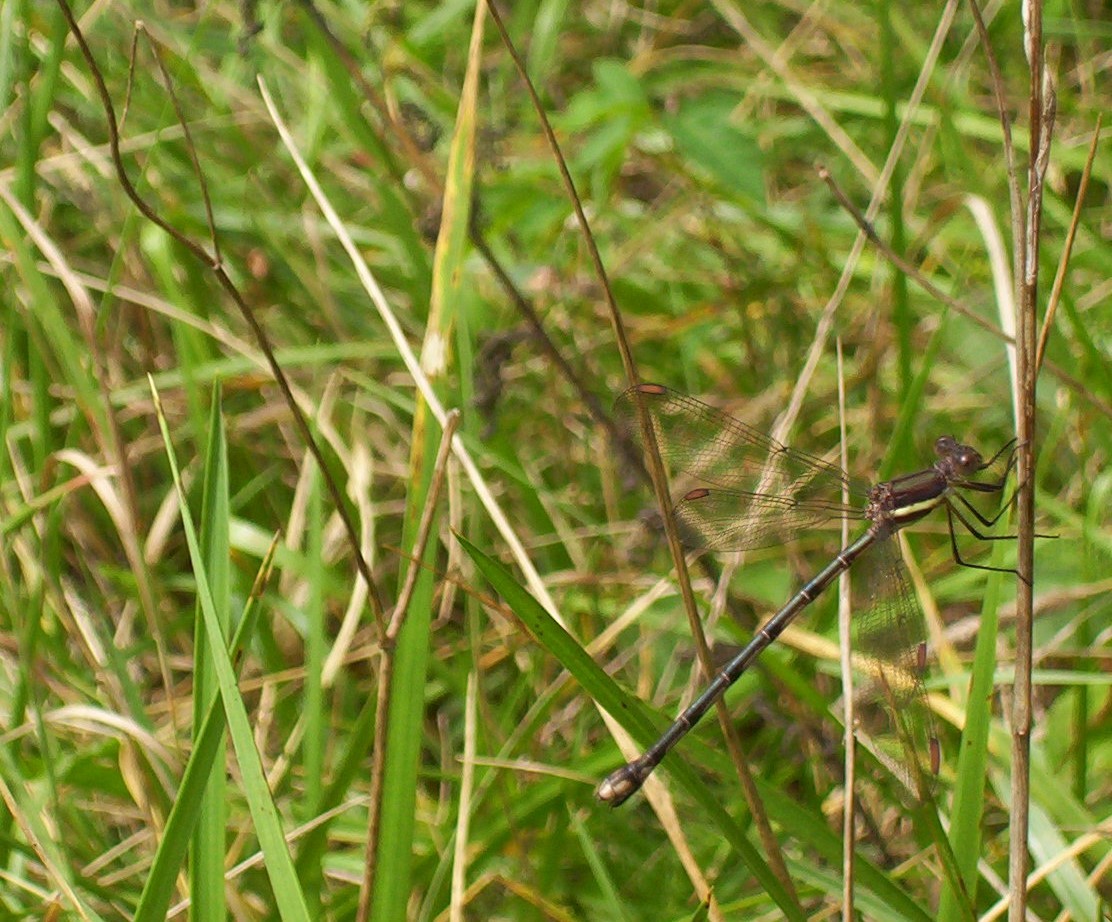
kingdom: Animalia
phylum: Arthropoda
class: Insecta
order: Odonata
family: Lestidae
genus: Archilestes
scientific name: Archilestes grandis
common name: Great spreadwing
